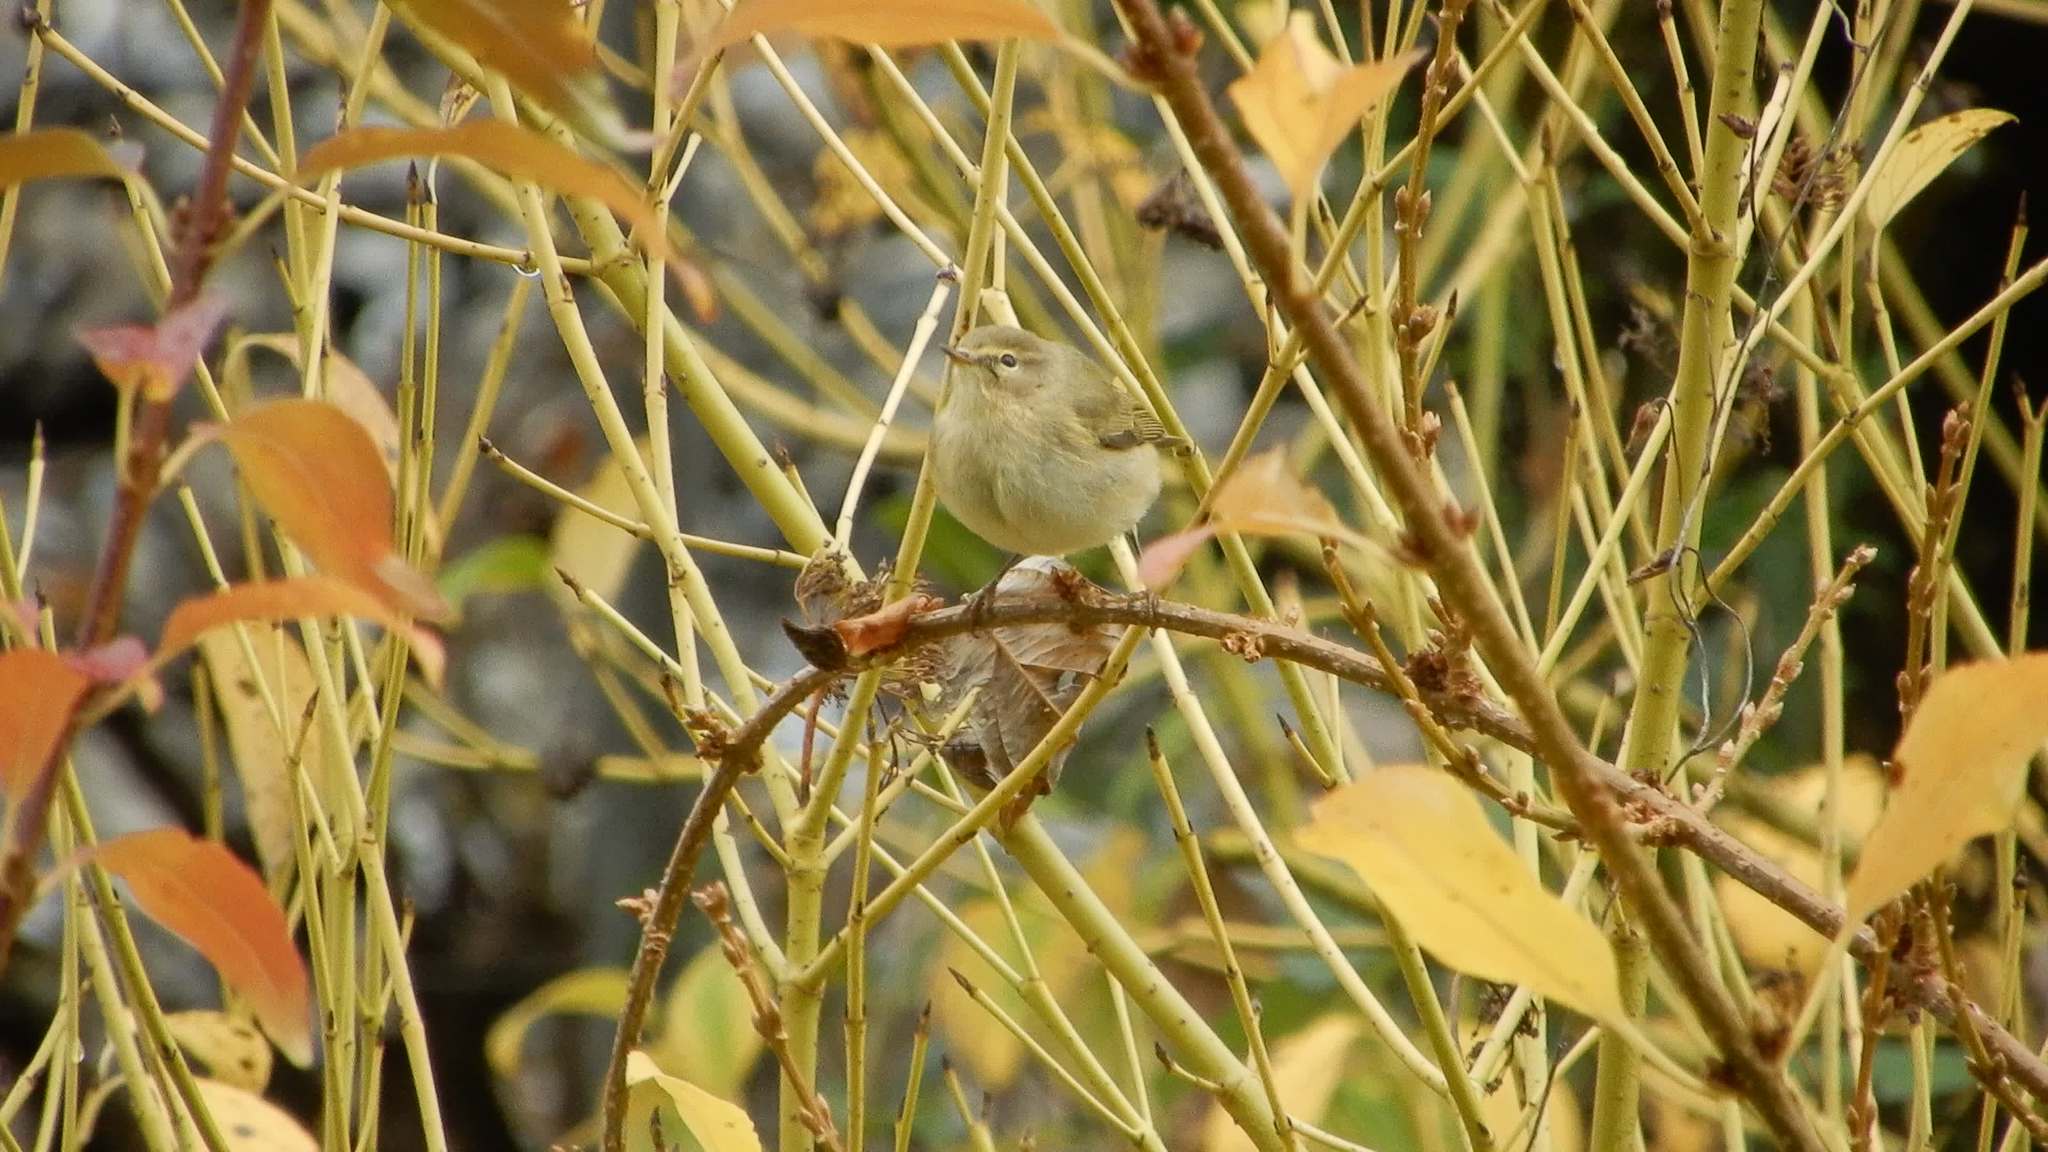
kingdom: Animalia
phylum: Chordata
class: Aves
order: Passeriformes
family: Phylloscopidae
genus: Phylloscopus
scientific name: Phylloscopus collybita
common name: Common chiffchaff
